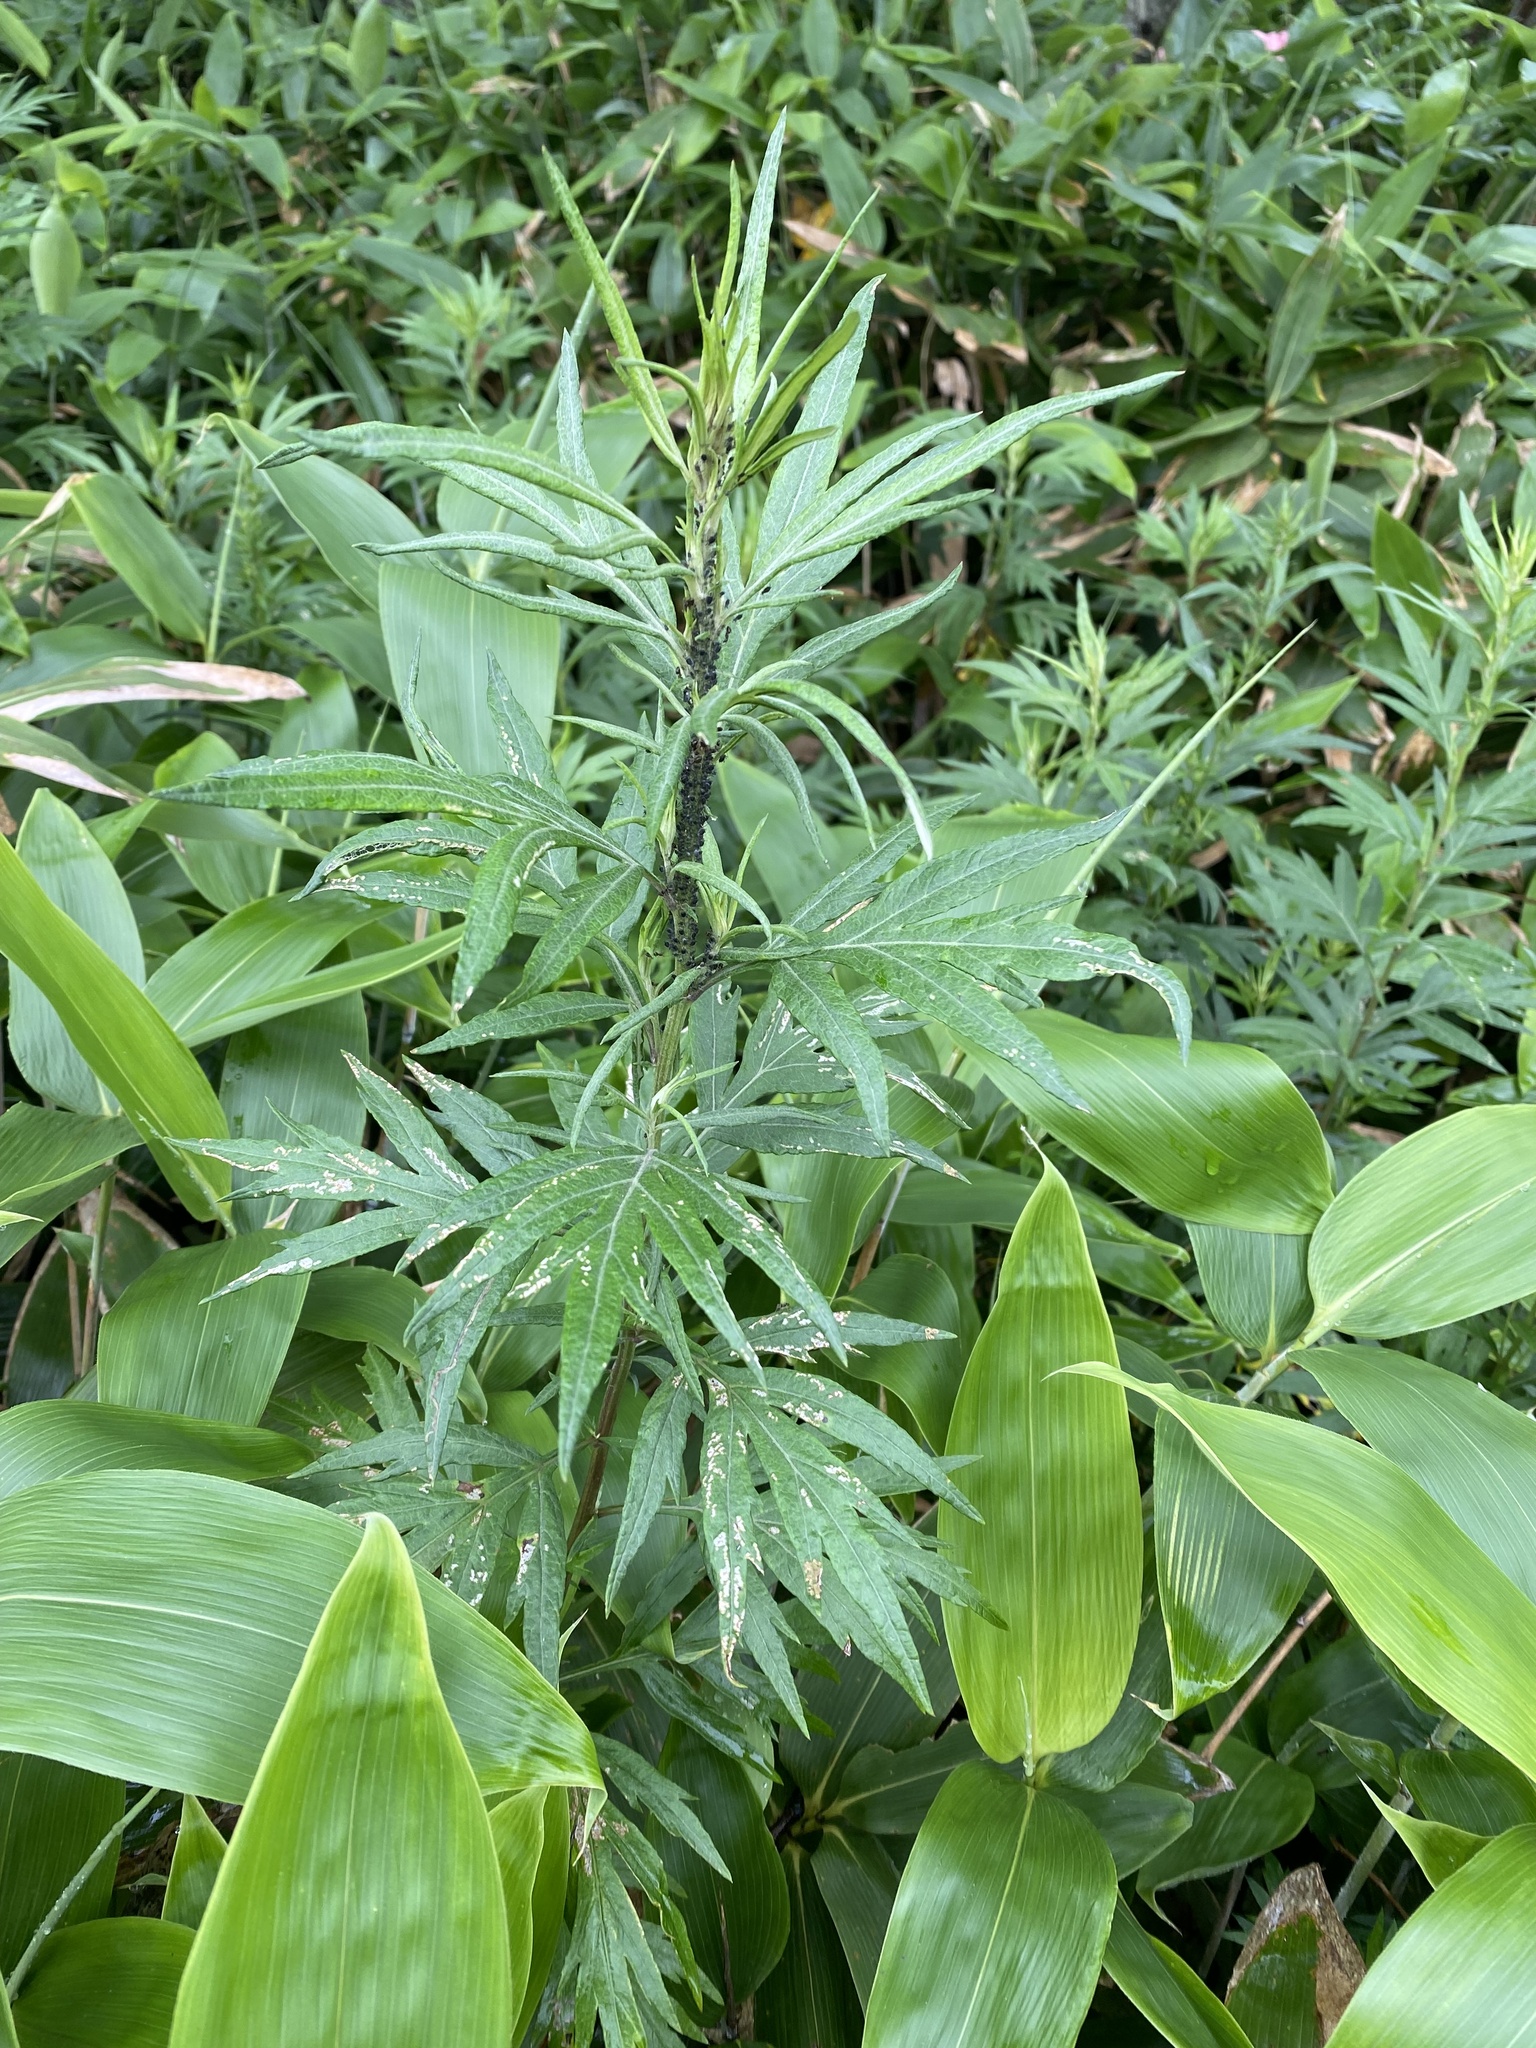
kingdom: Plantae
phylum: Tracheophyta
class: Magnoliopsida
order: Asterales
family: Asteraceae
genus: Jacobaea
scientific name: Jacobaea cannabifolia
